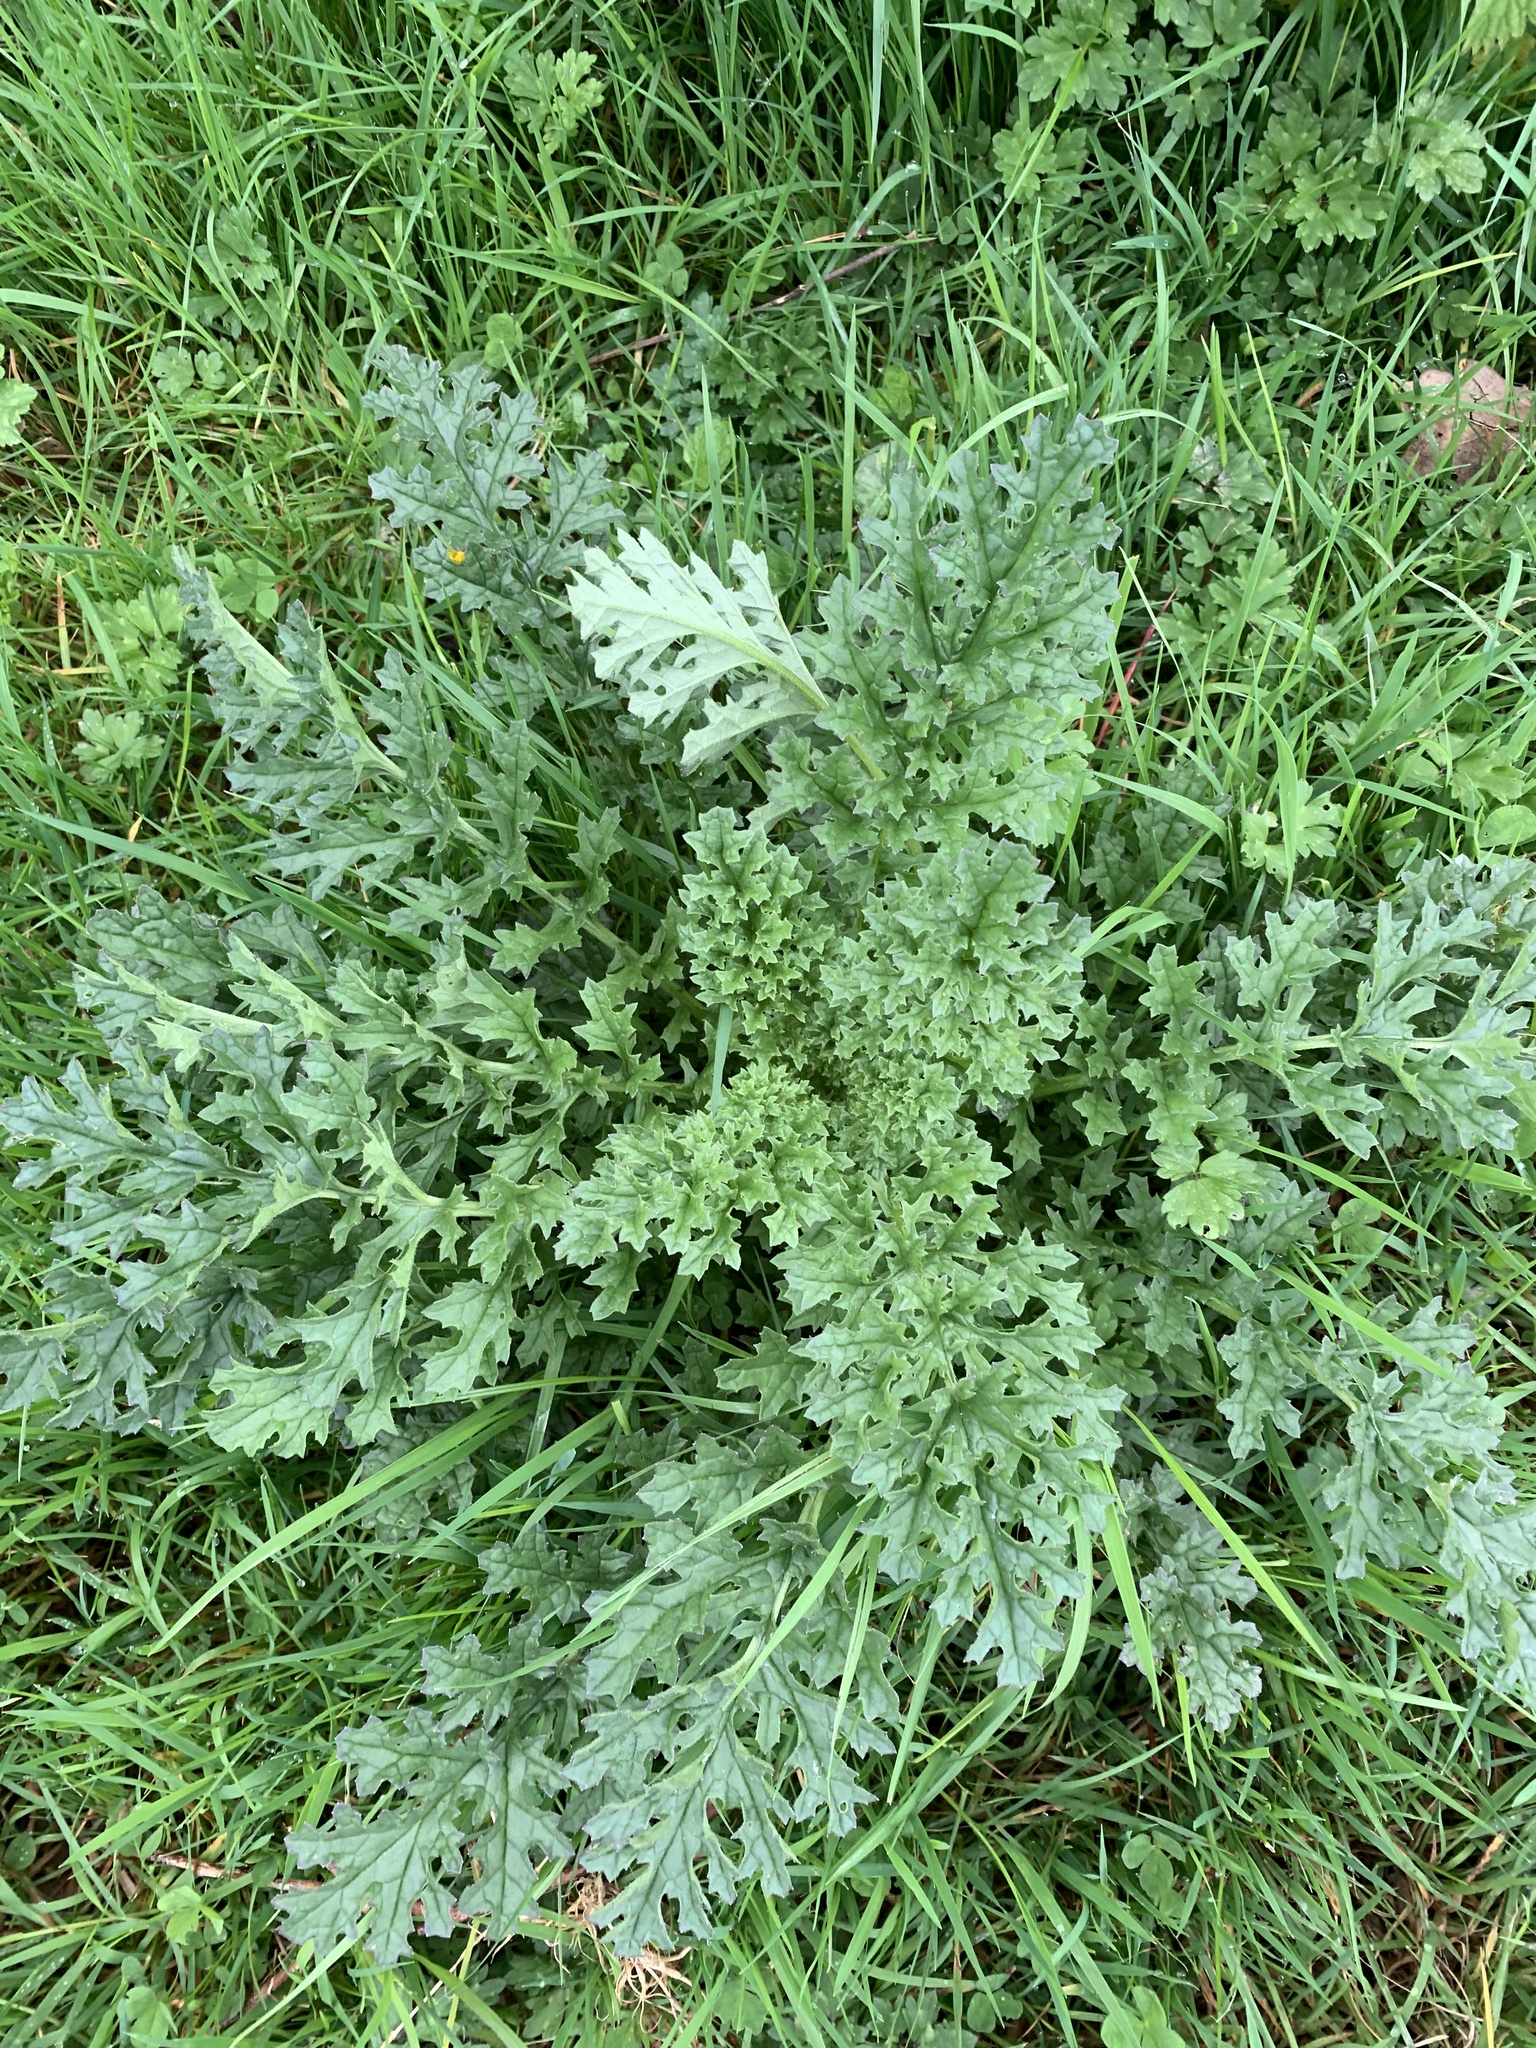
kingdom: Plantae
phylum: Tracheophyta
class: Magnoliopsida
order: Asterales
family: Asteraceae
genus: Jacobaea
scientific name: Jacobaea vulgaris
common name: Stinking willie
